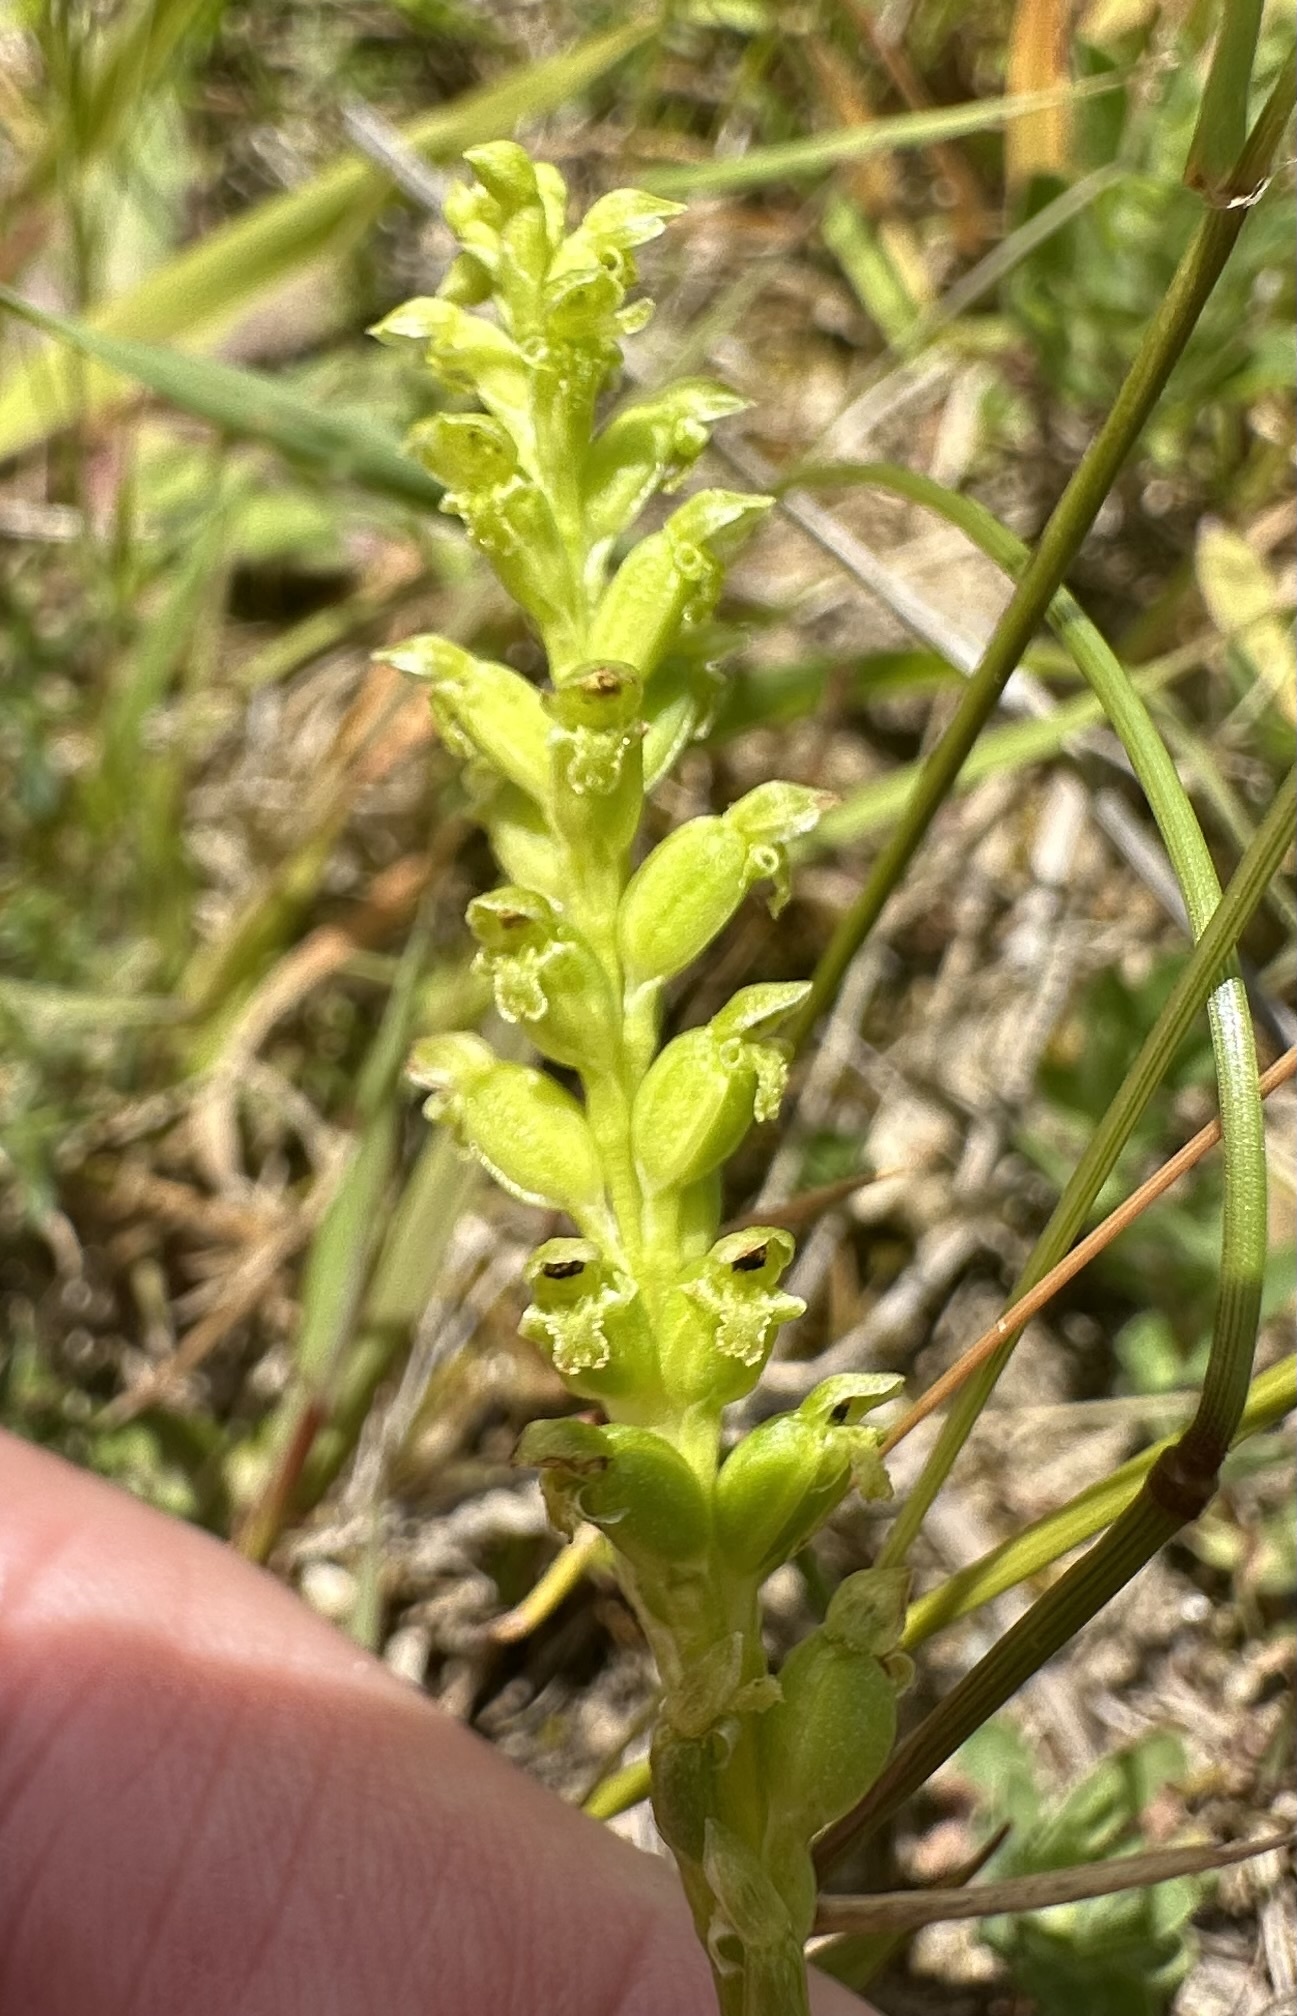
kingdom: Plantae
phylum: Tracheophyta
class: Liliopsida
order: Asparagales
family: Orchidaceae
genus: Microtis
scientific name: Microtis unifolia
